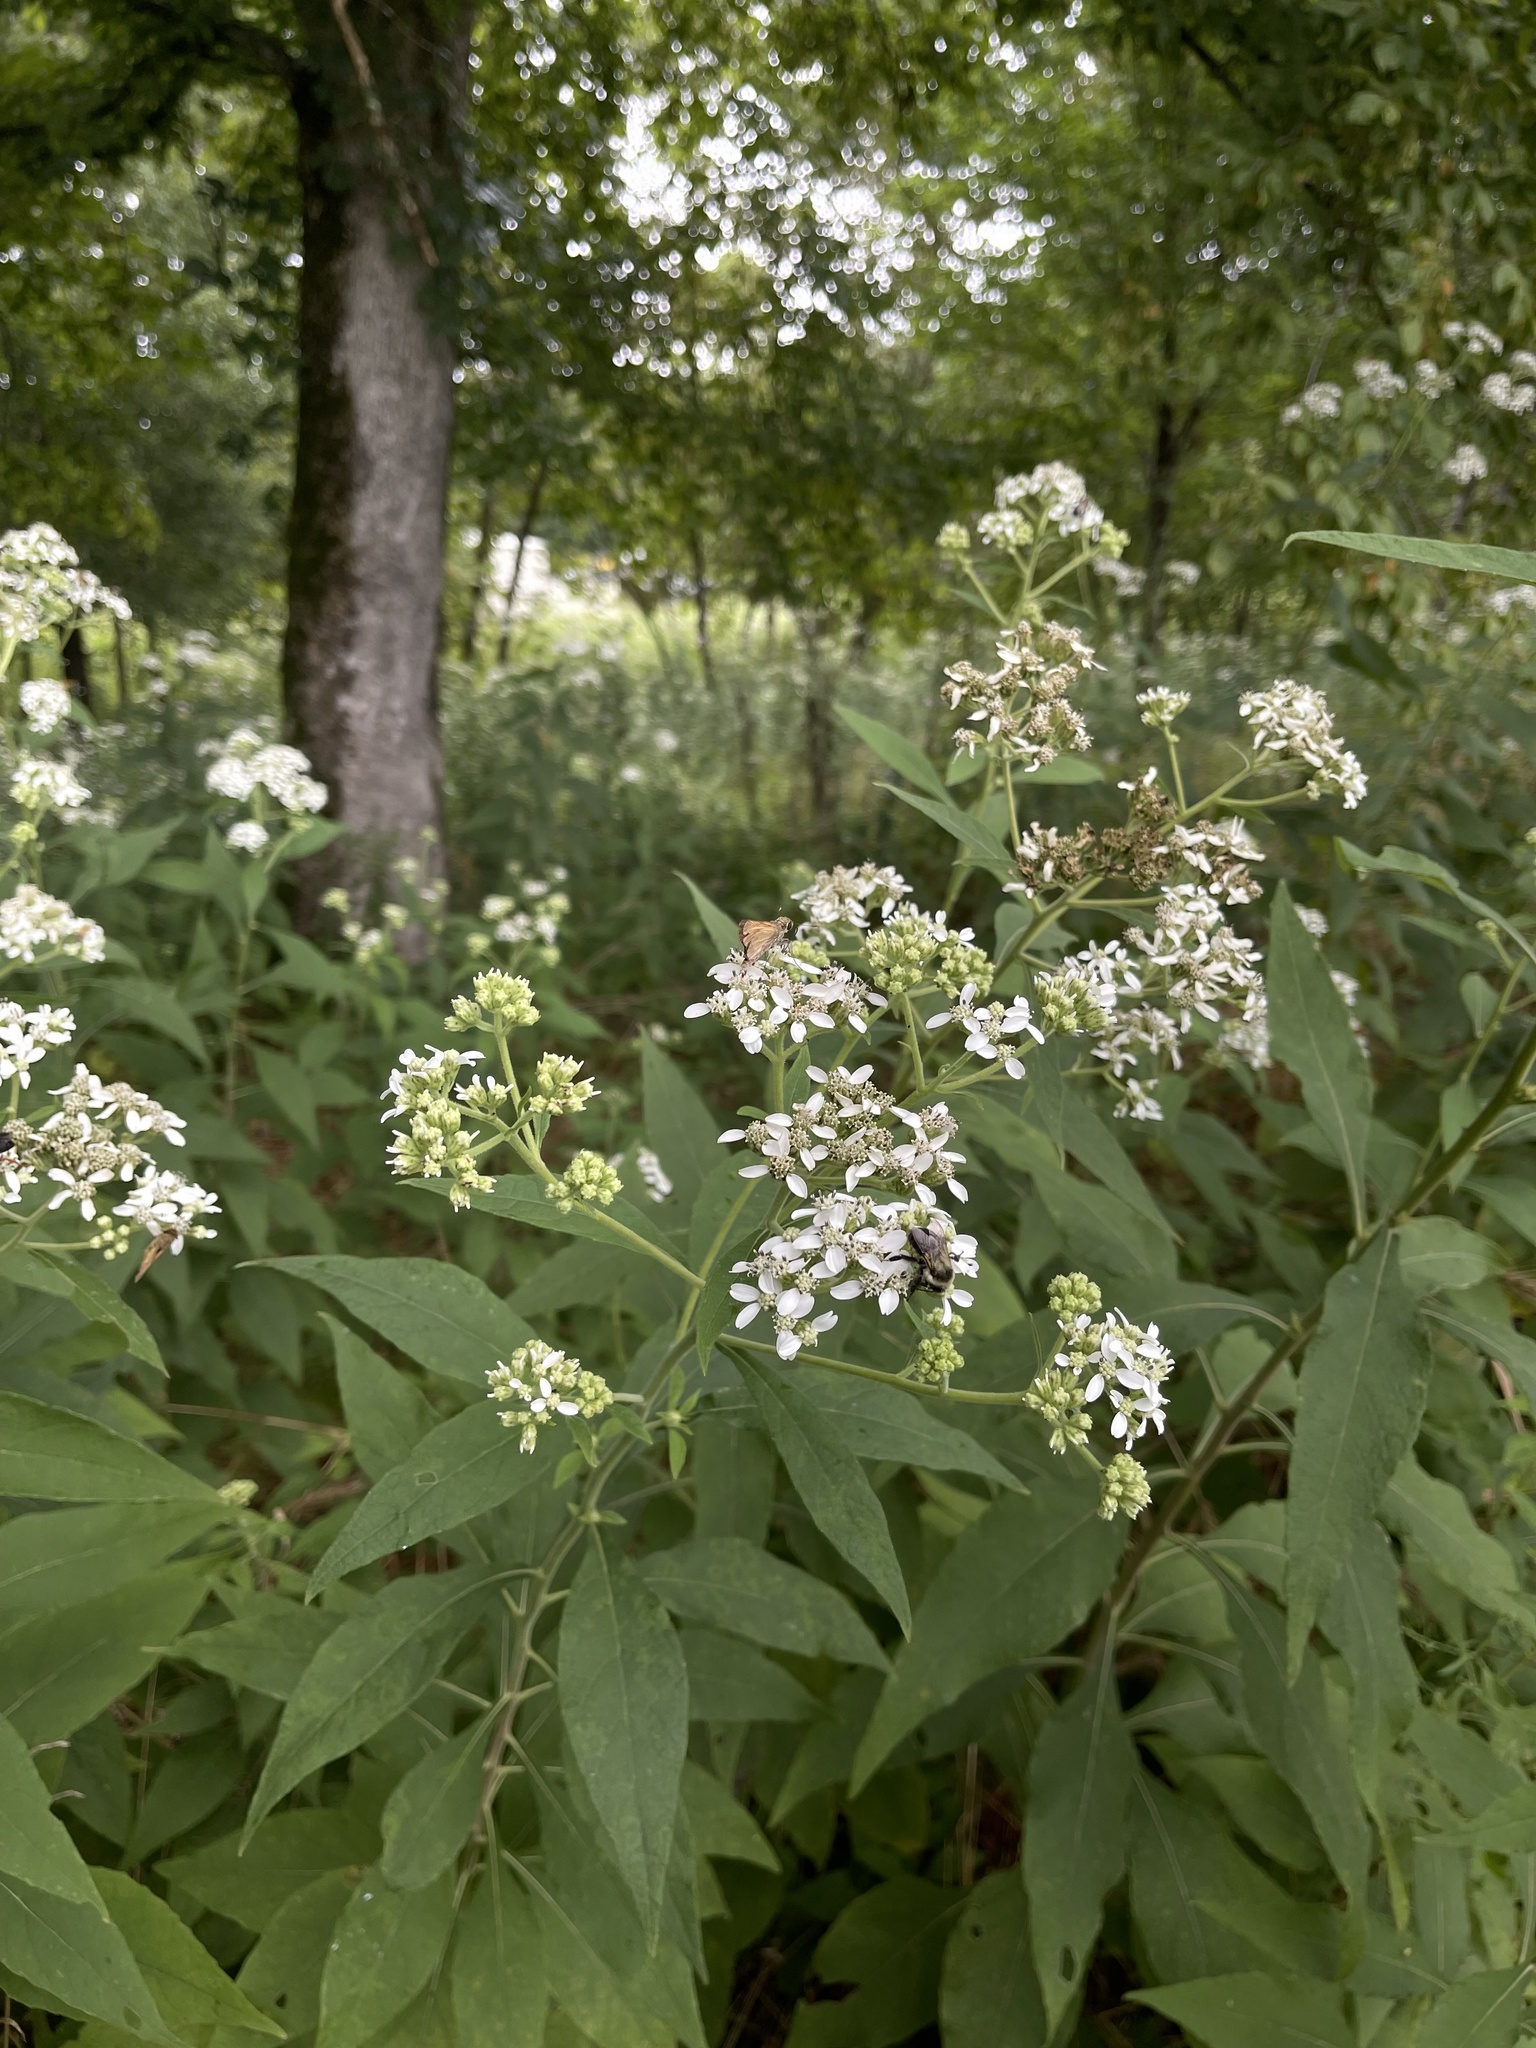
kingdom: Plantae
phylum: Tracheophyta
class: Magnoliopsida
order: Asterales
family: Asteraceae
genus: Verbesina
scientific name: Verbesina virginica
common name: Frostweed
